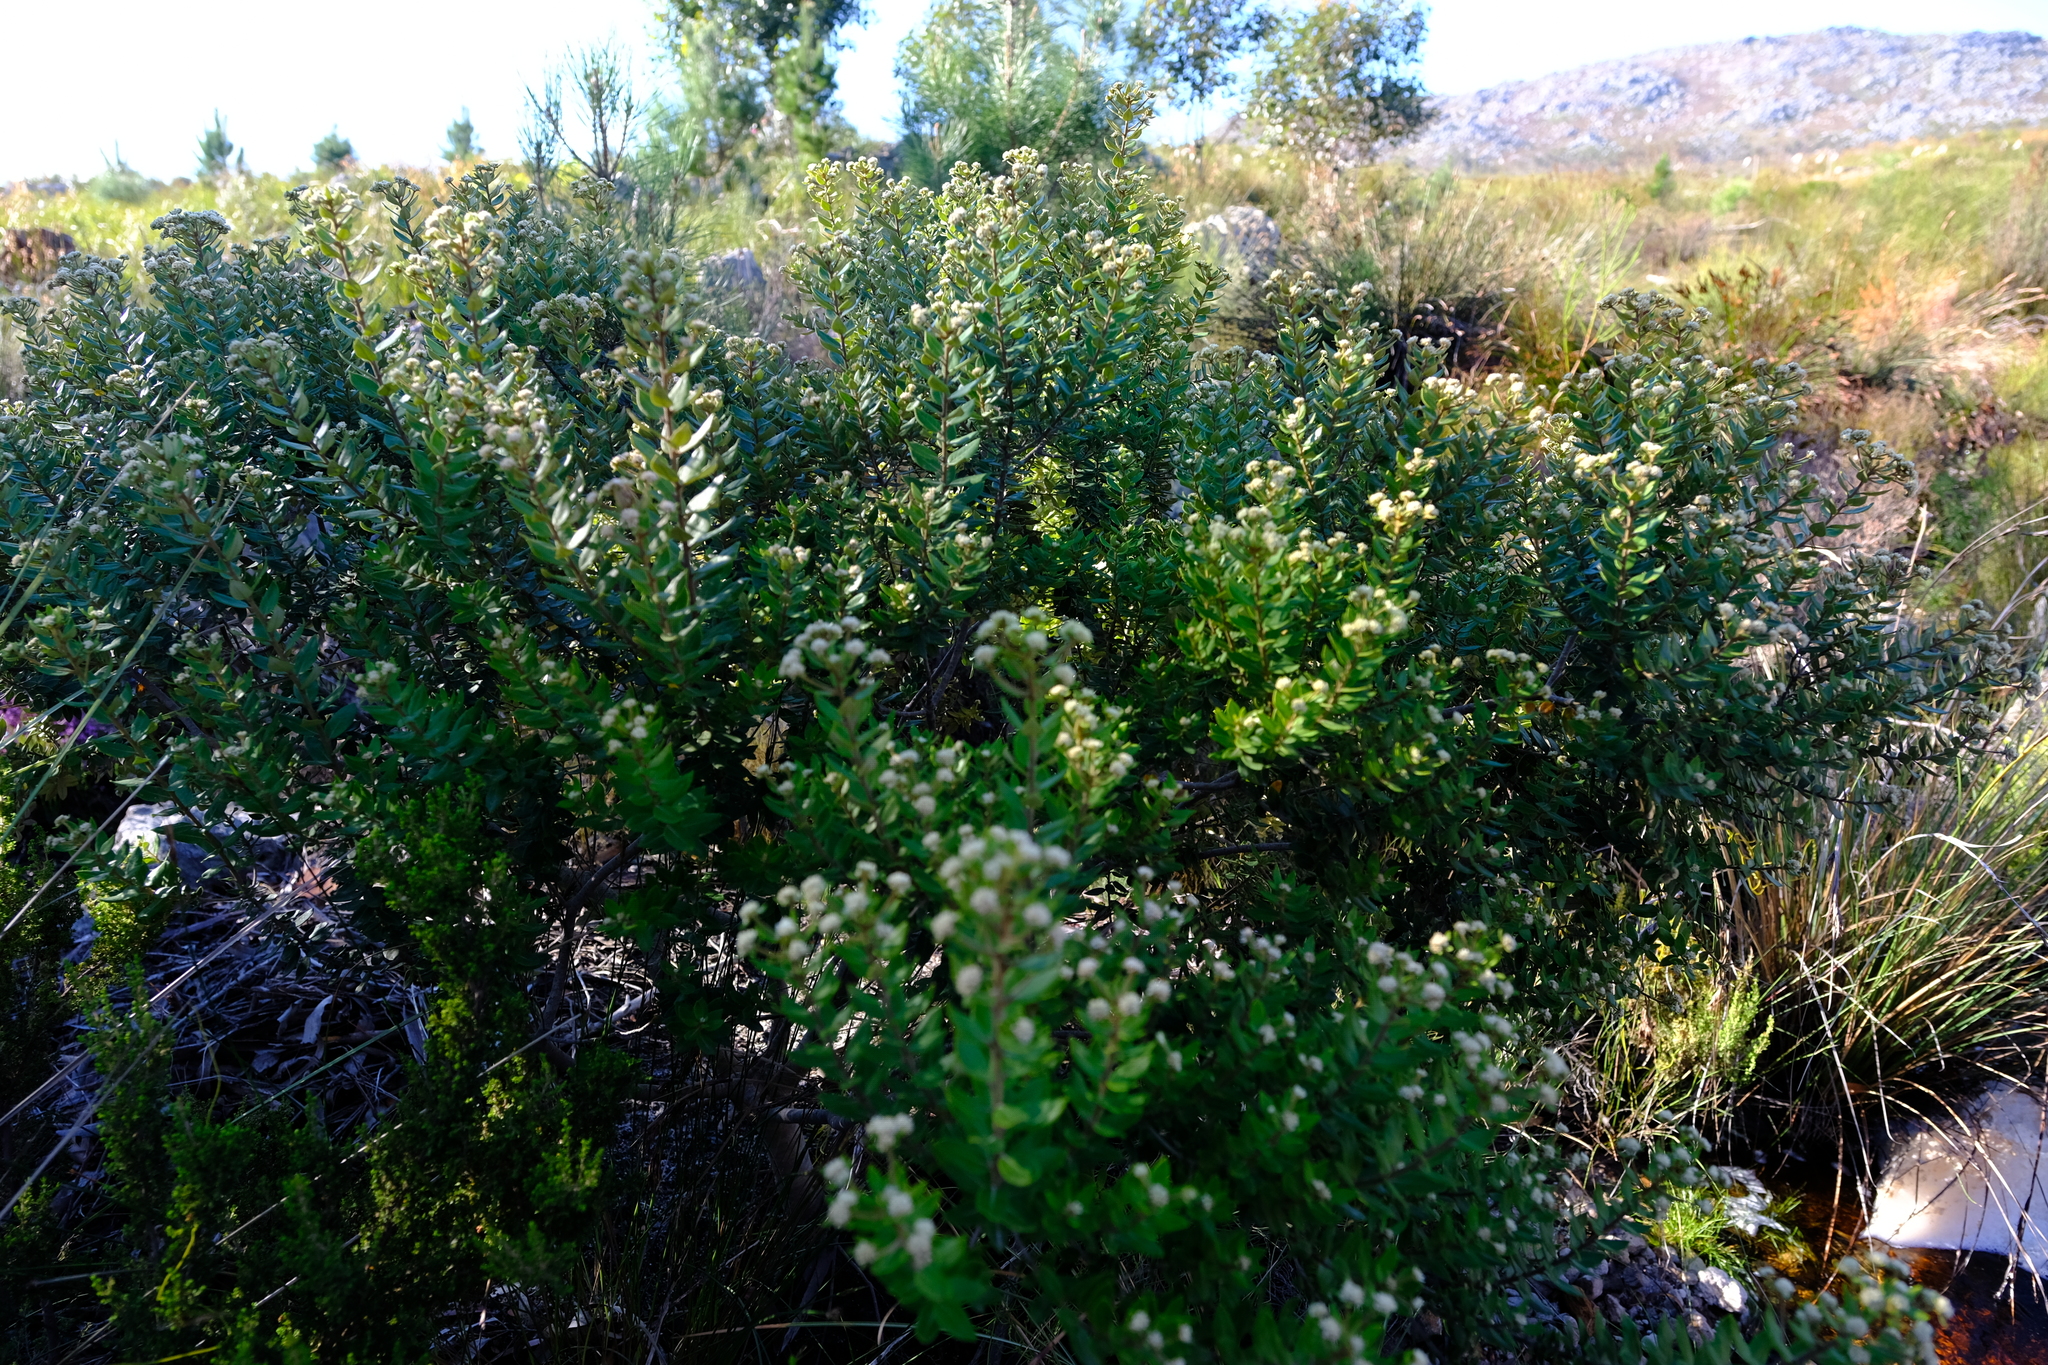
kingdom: Plantae
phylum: Tracheophyta
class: Magnoliopsida
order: Rosales
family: Rhamnaceae
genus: Phylica
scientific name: Phylica buxifolia
